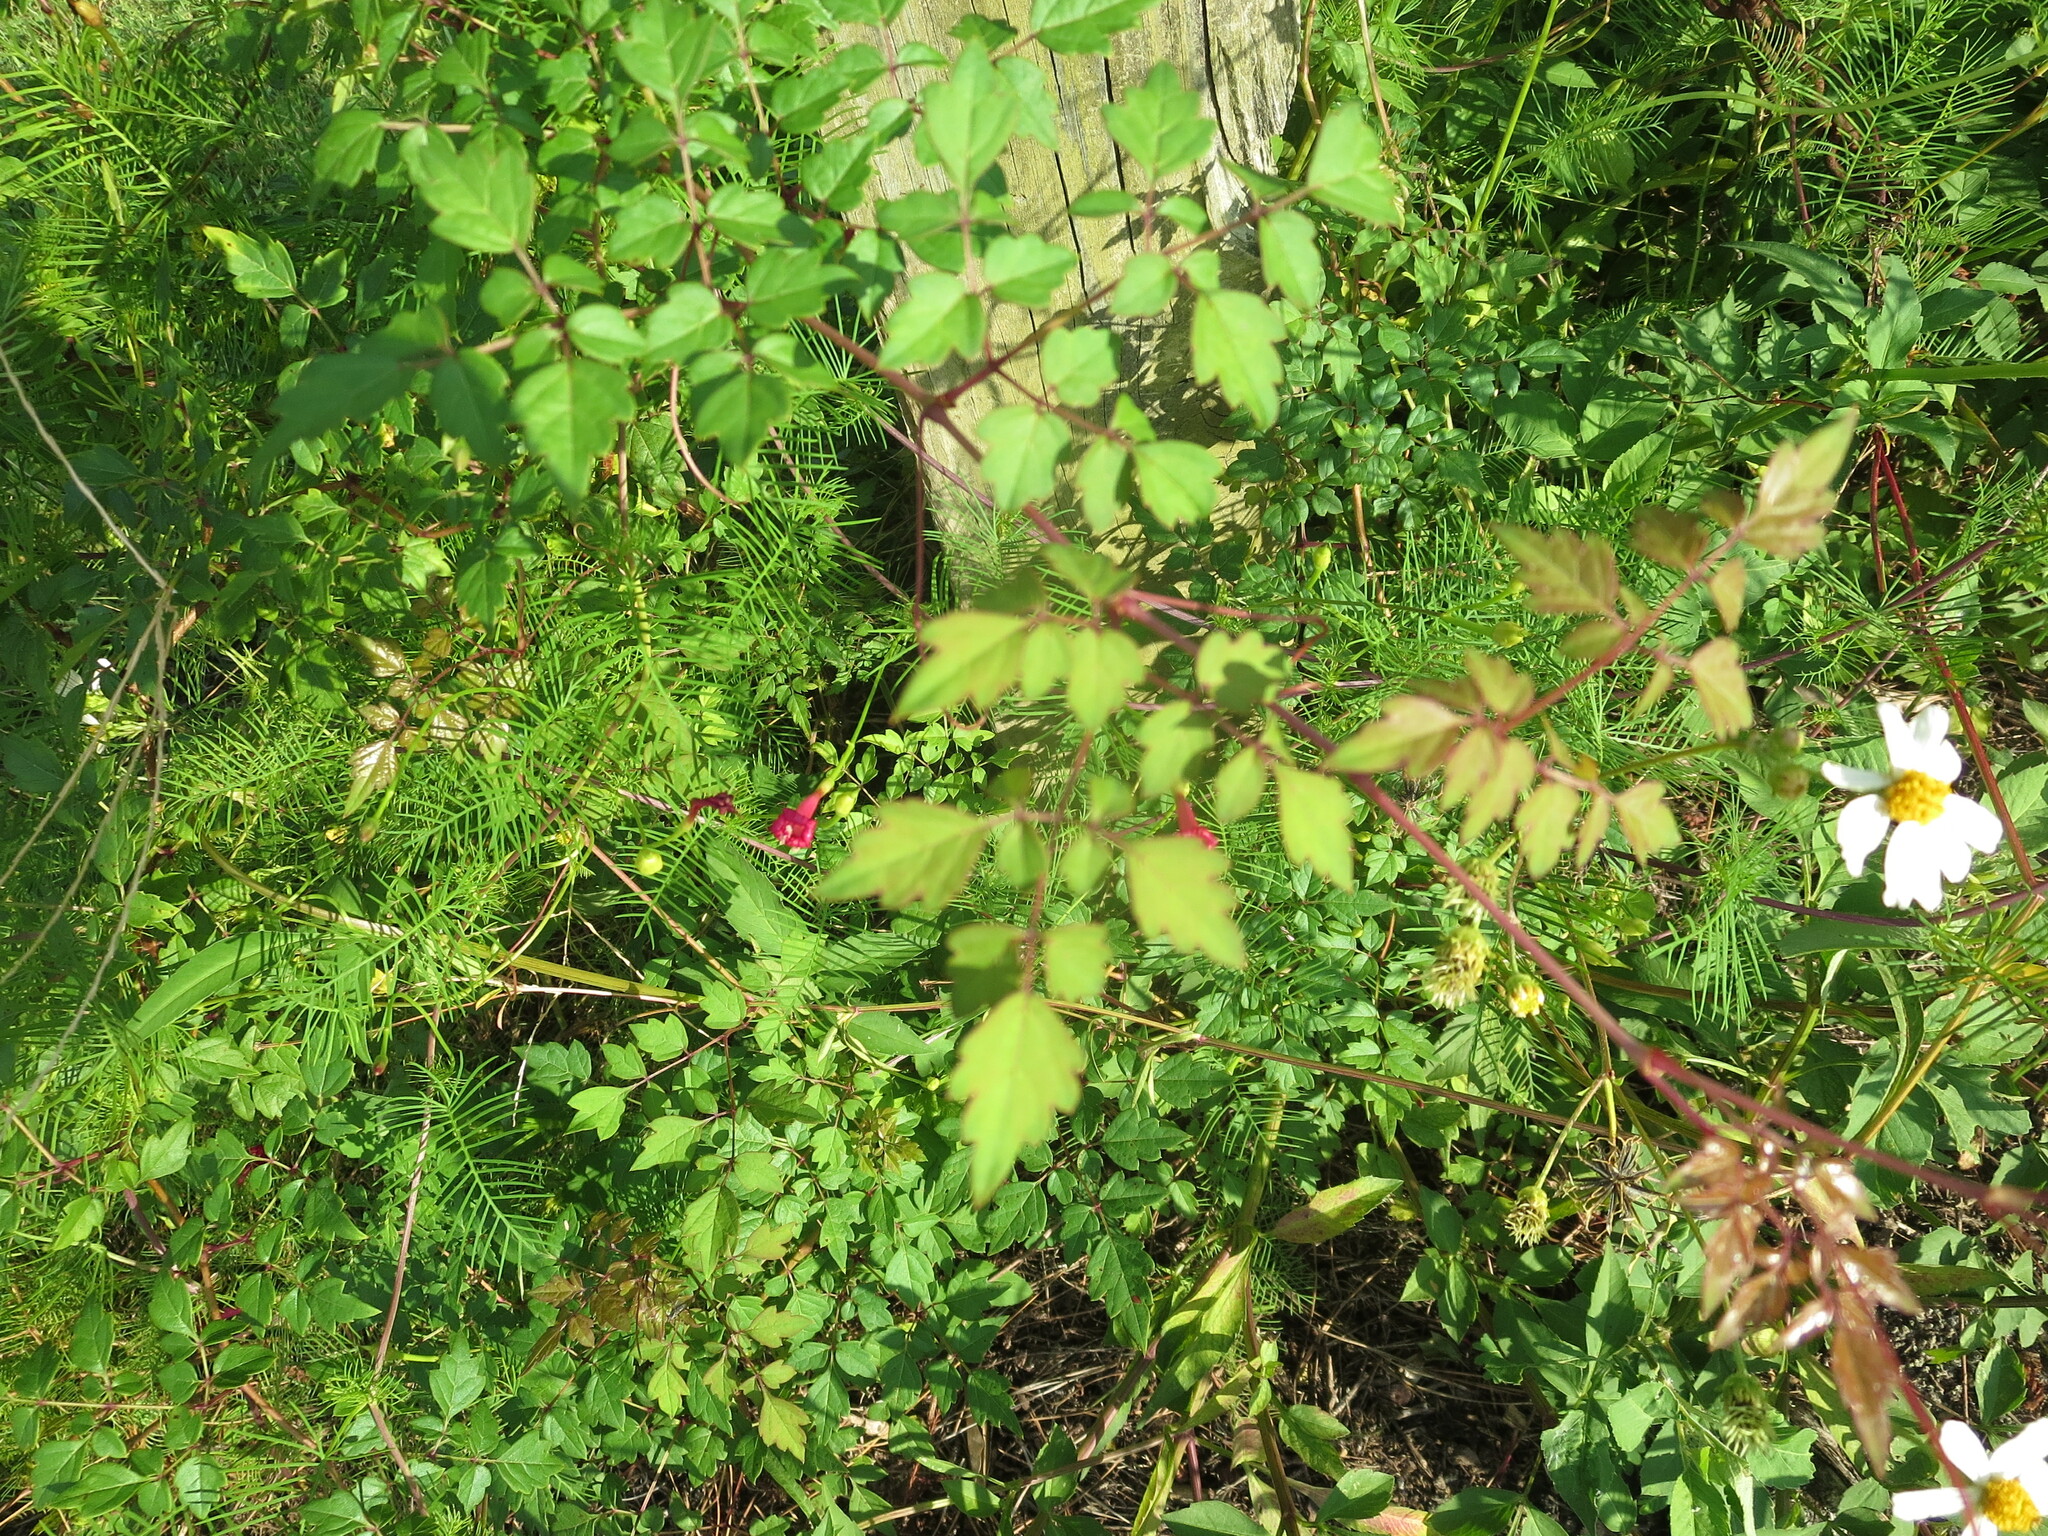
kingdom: Plantae
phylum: Tracheophyta
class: Magnoliopsida
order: Vitales
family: Vitaceae
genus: Nekemias
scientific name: Nekemias arborea
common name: Peppervine
